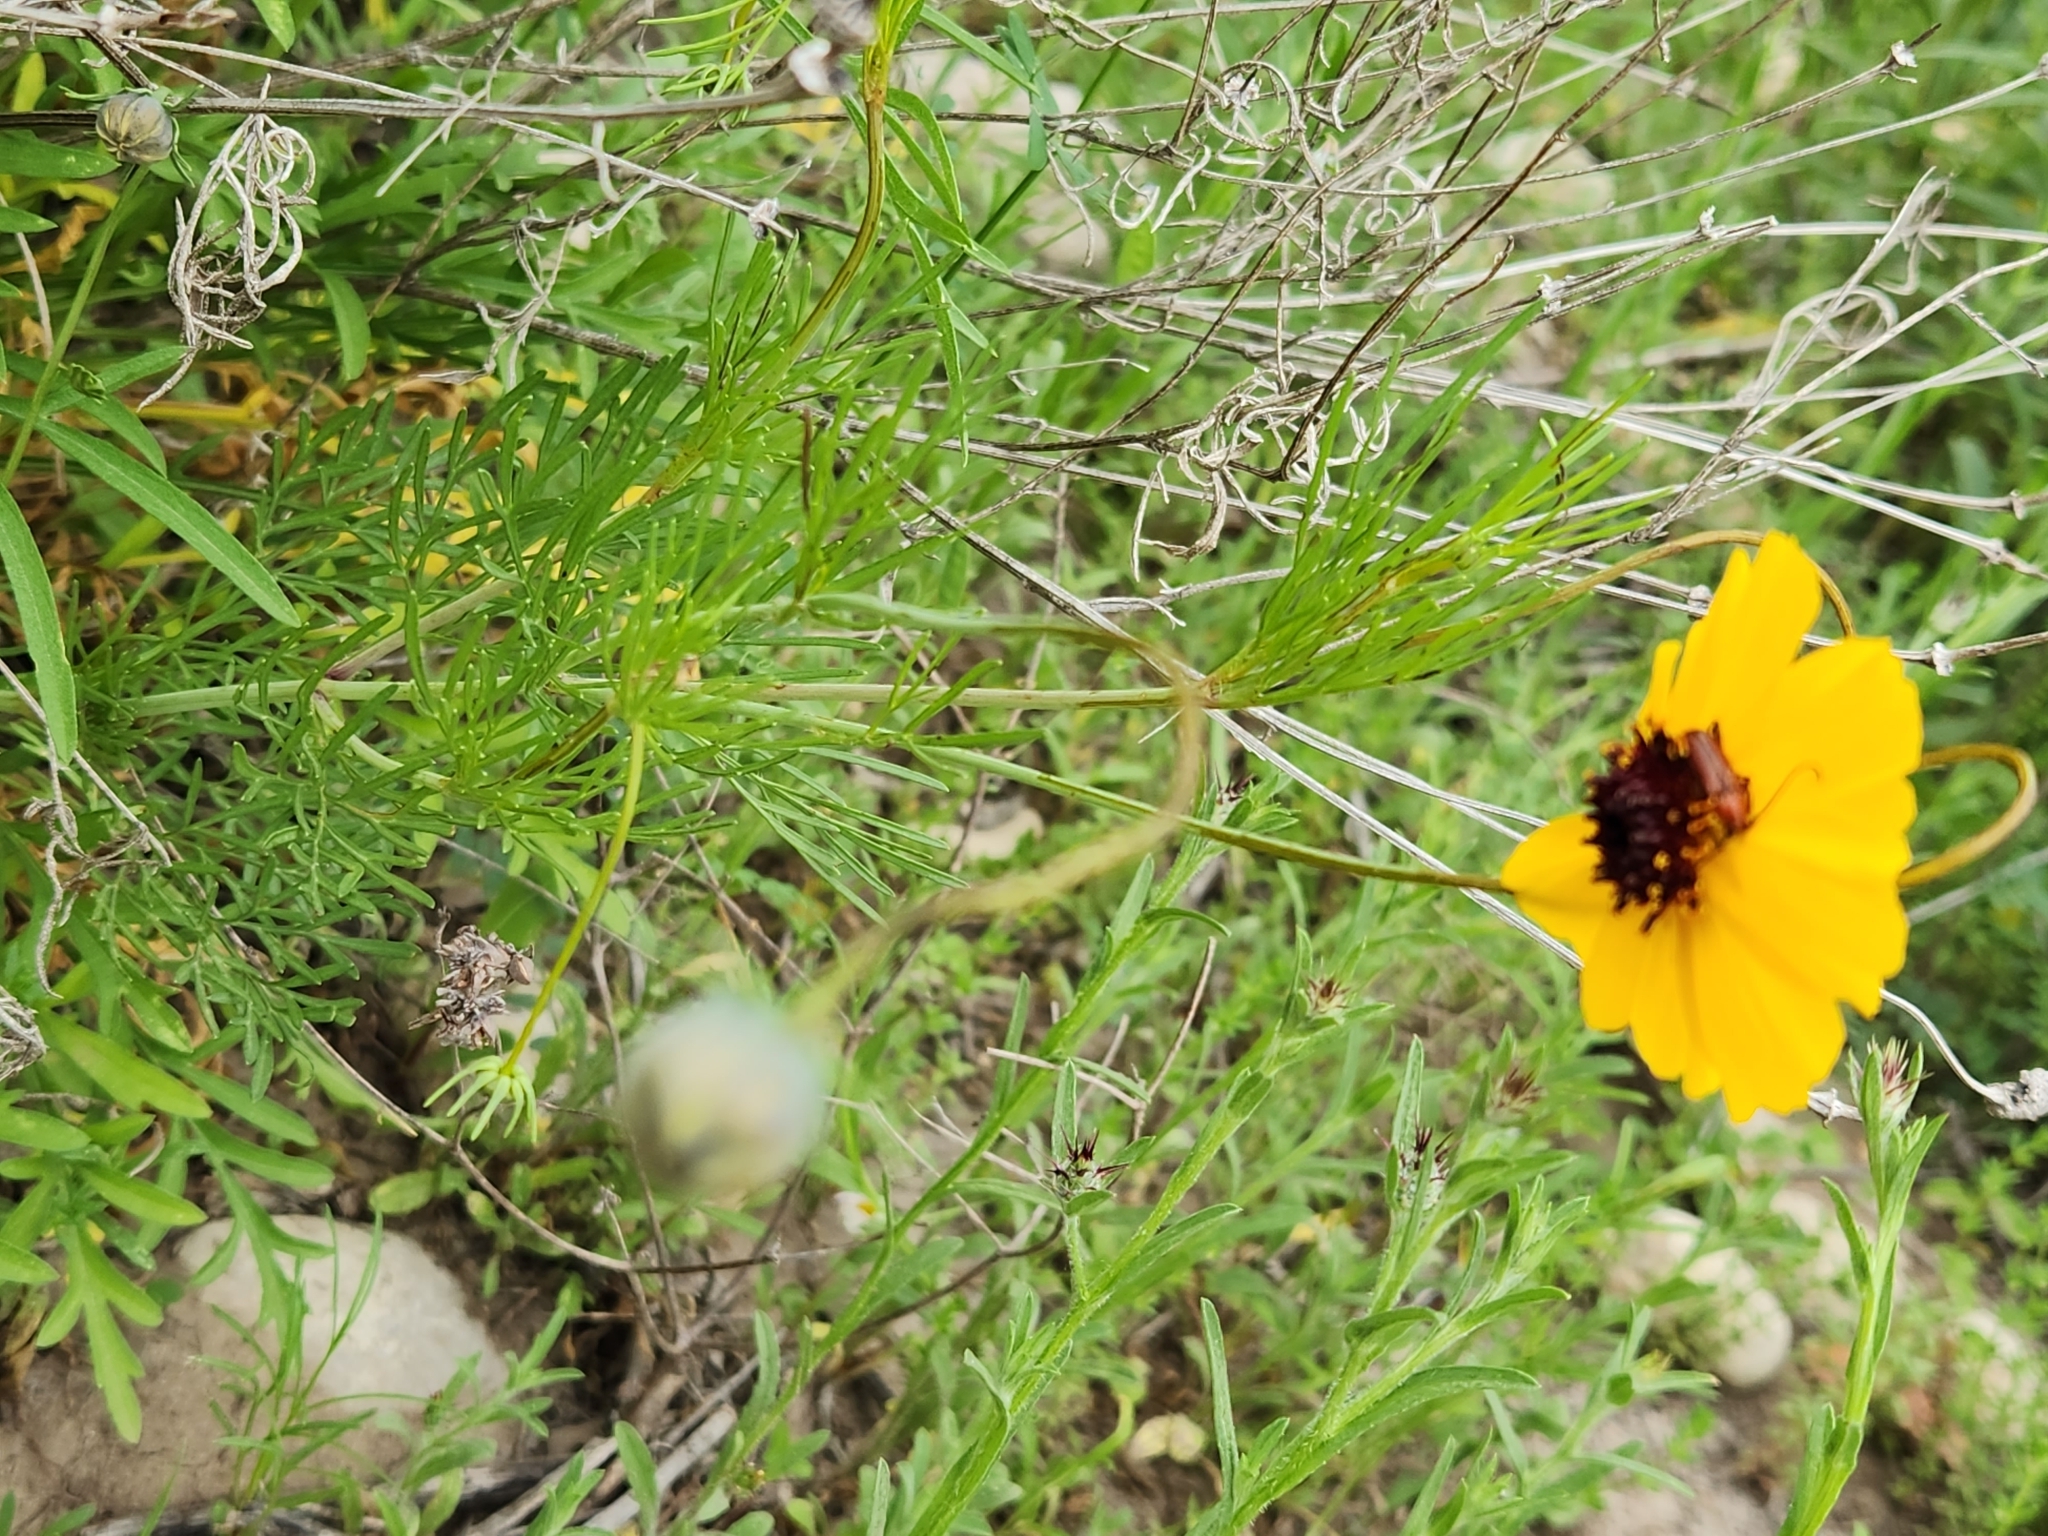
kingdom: Plantae
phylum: Tracheophyta
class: Magnoliopsida
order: Asterales
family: Asteraceae
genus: Thelesperma
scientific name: Thelesperma filifolium
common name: Stiff greenthread
